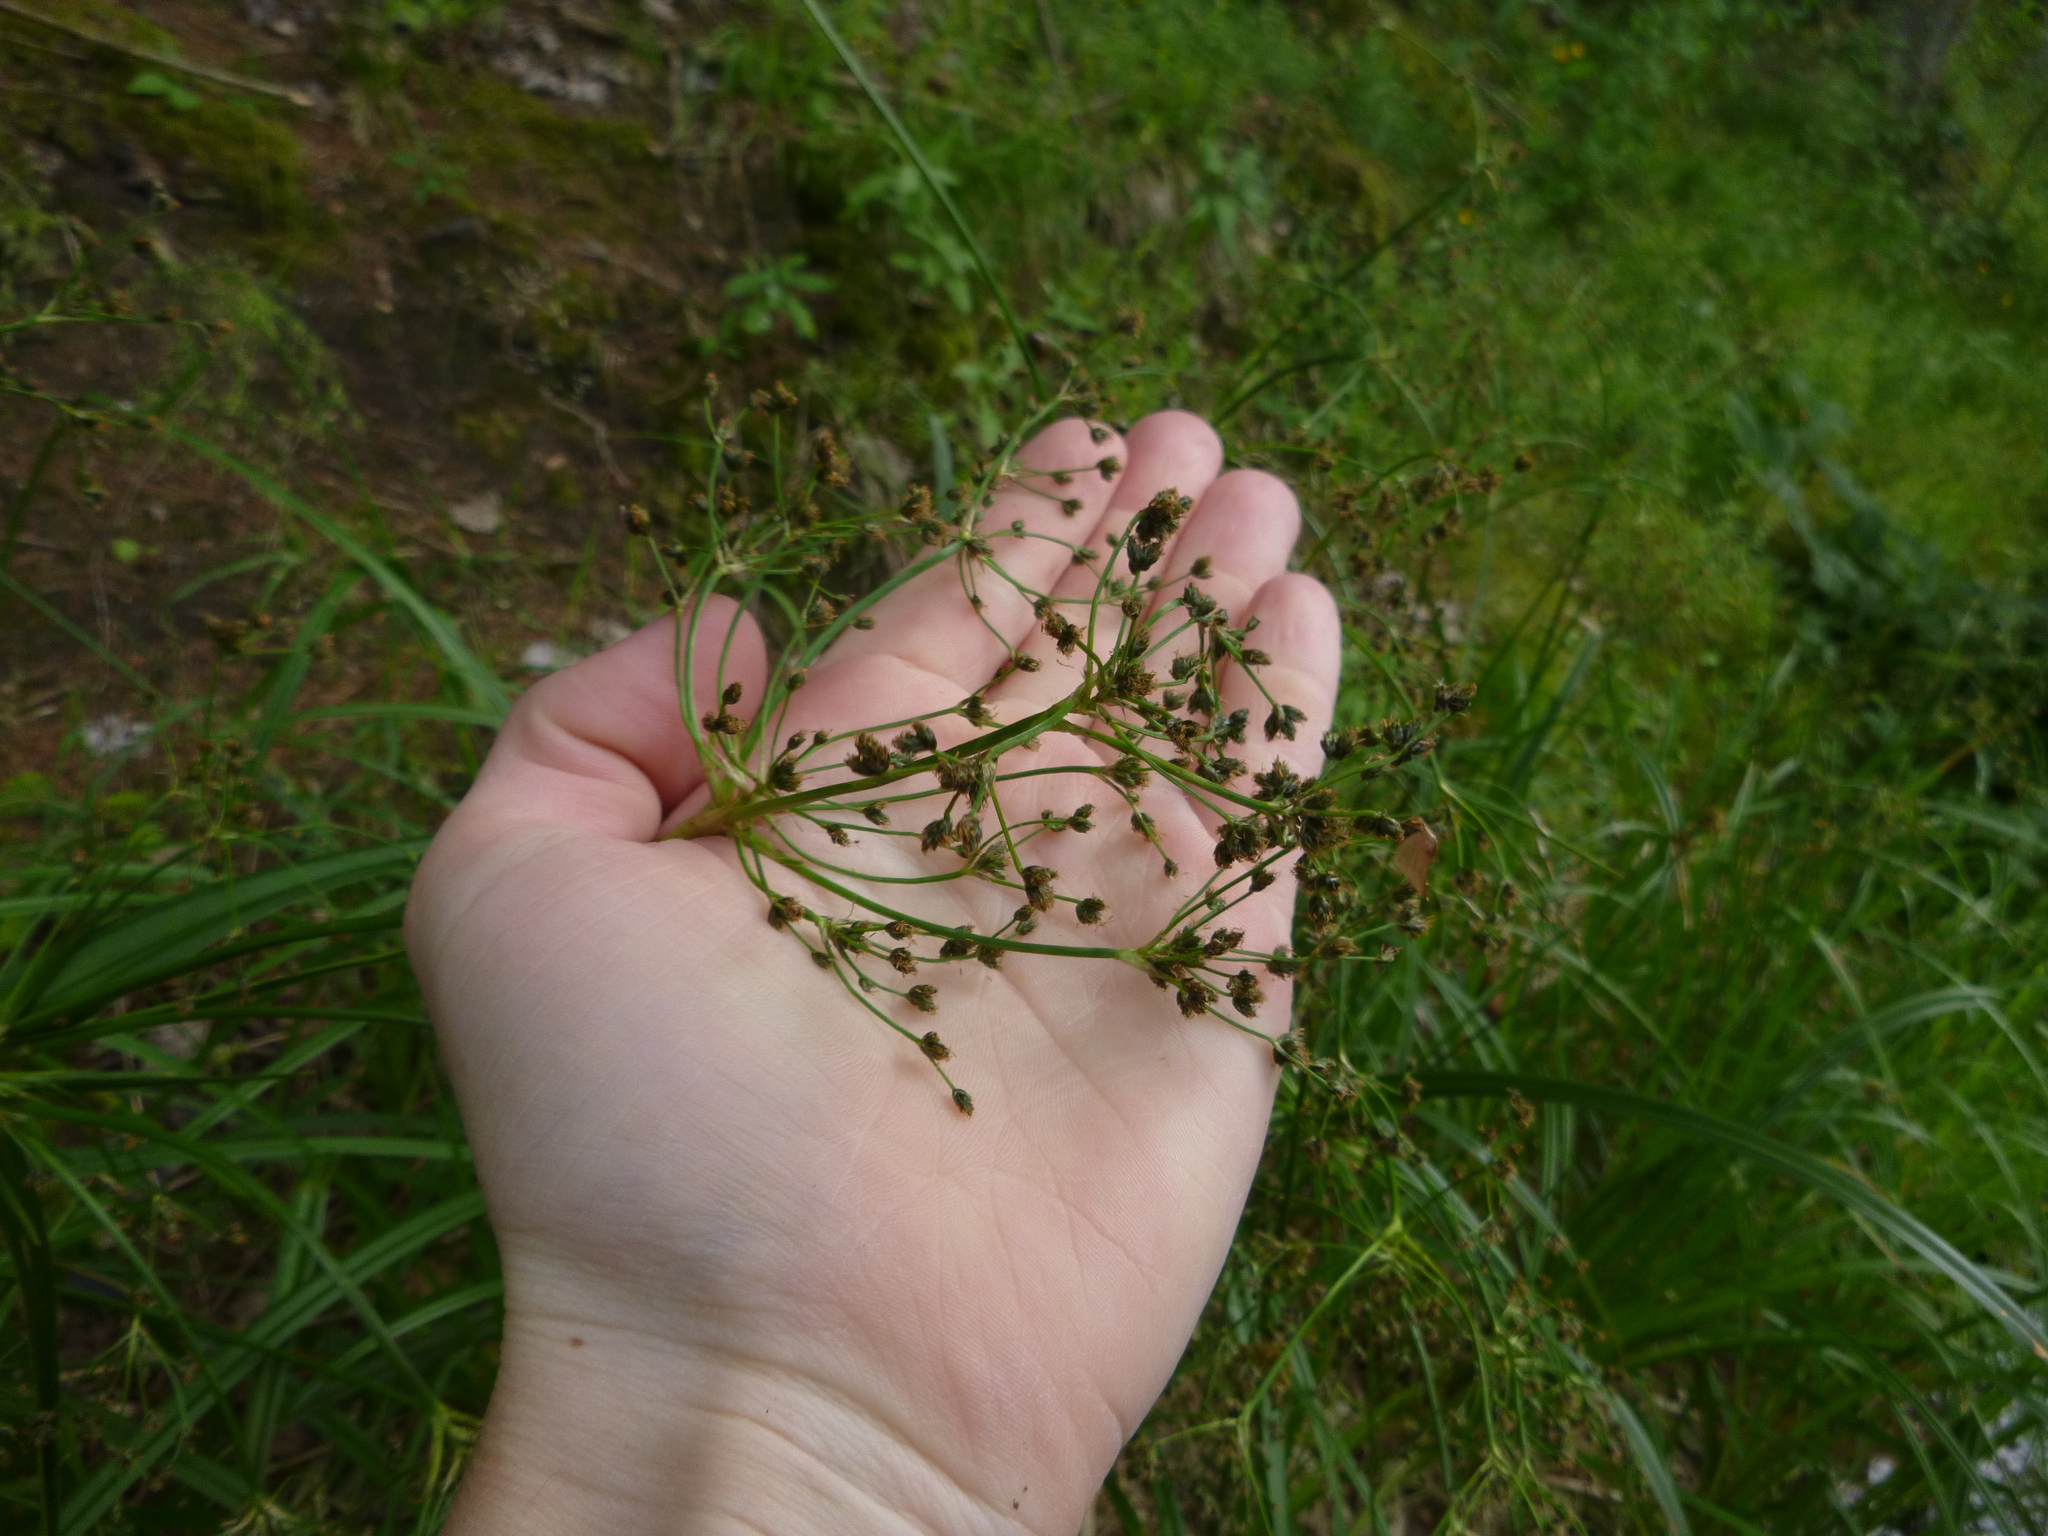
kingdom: Plantae
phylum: Tracheophyta
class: Liliopsida
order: Poales
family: Cyperaceae
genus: Scirpus
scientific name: Scirpus sylvaticus
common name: Wood club-rush
